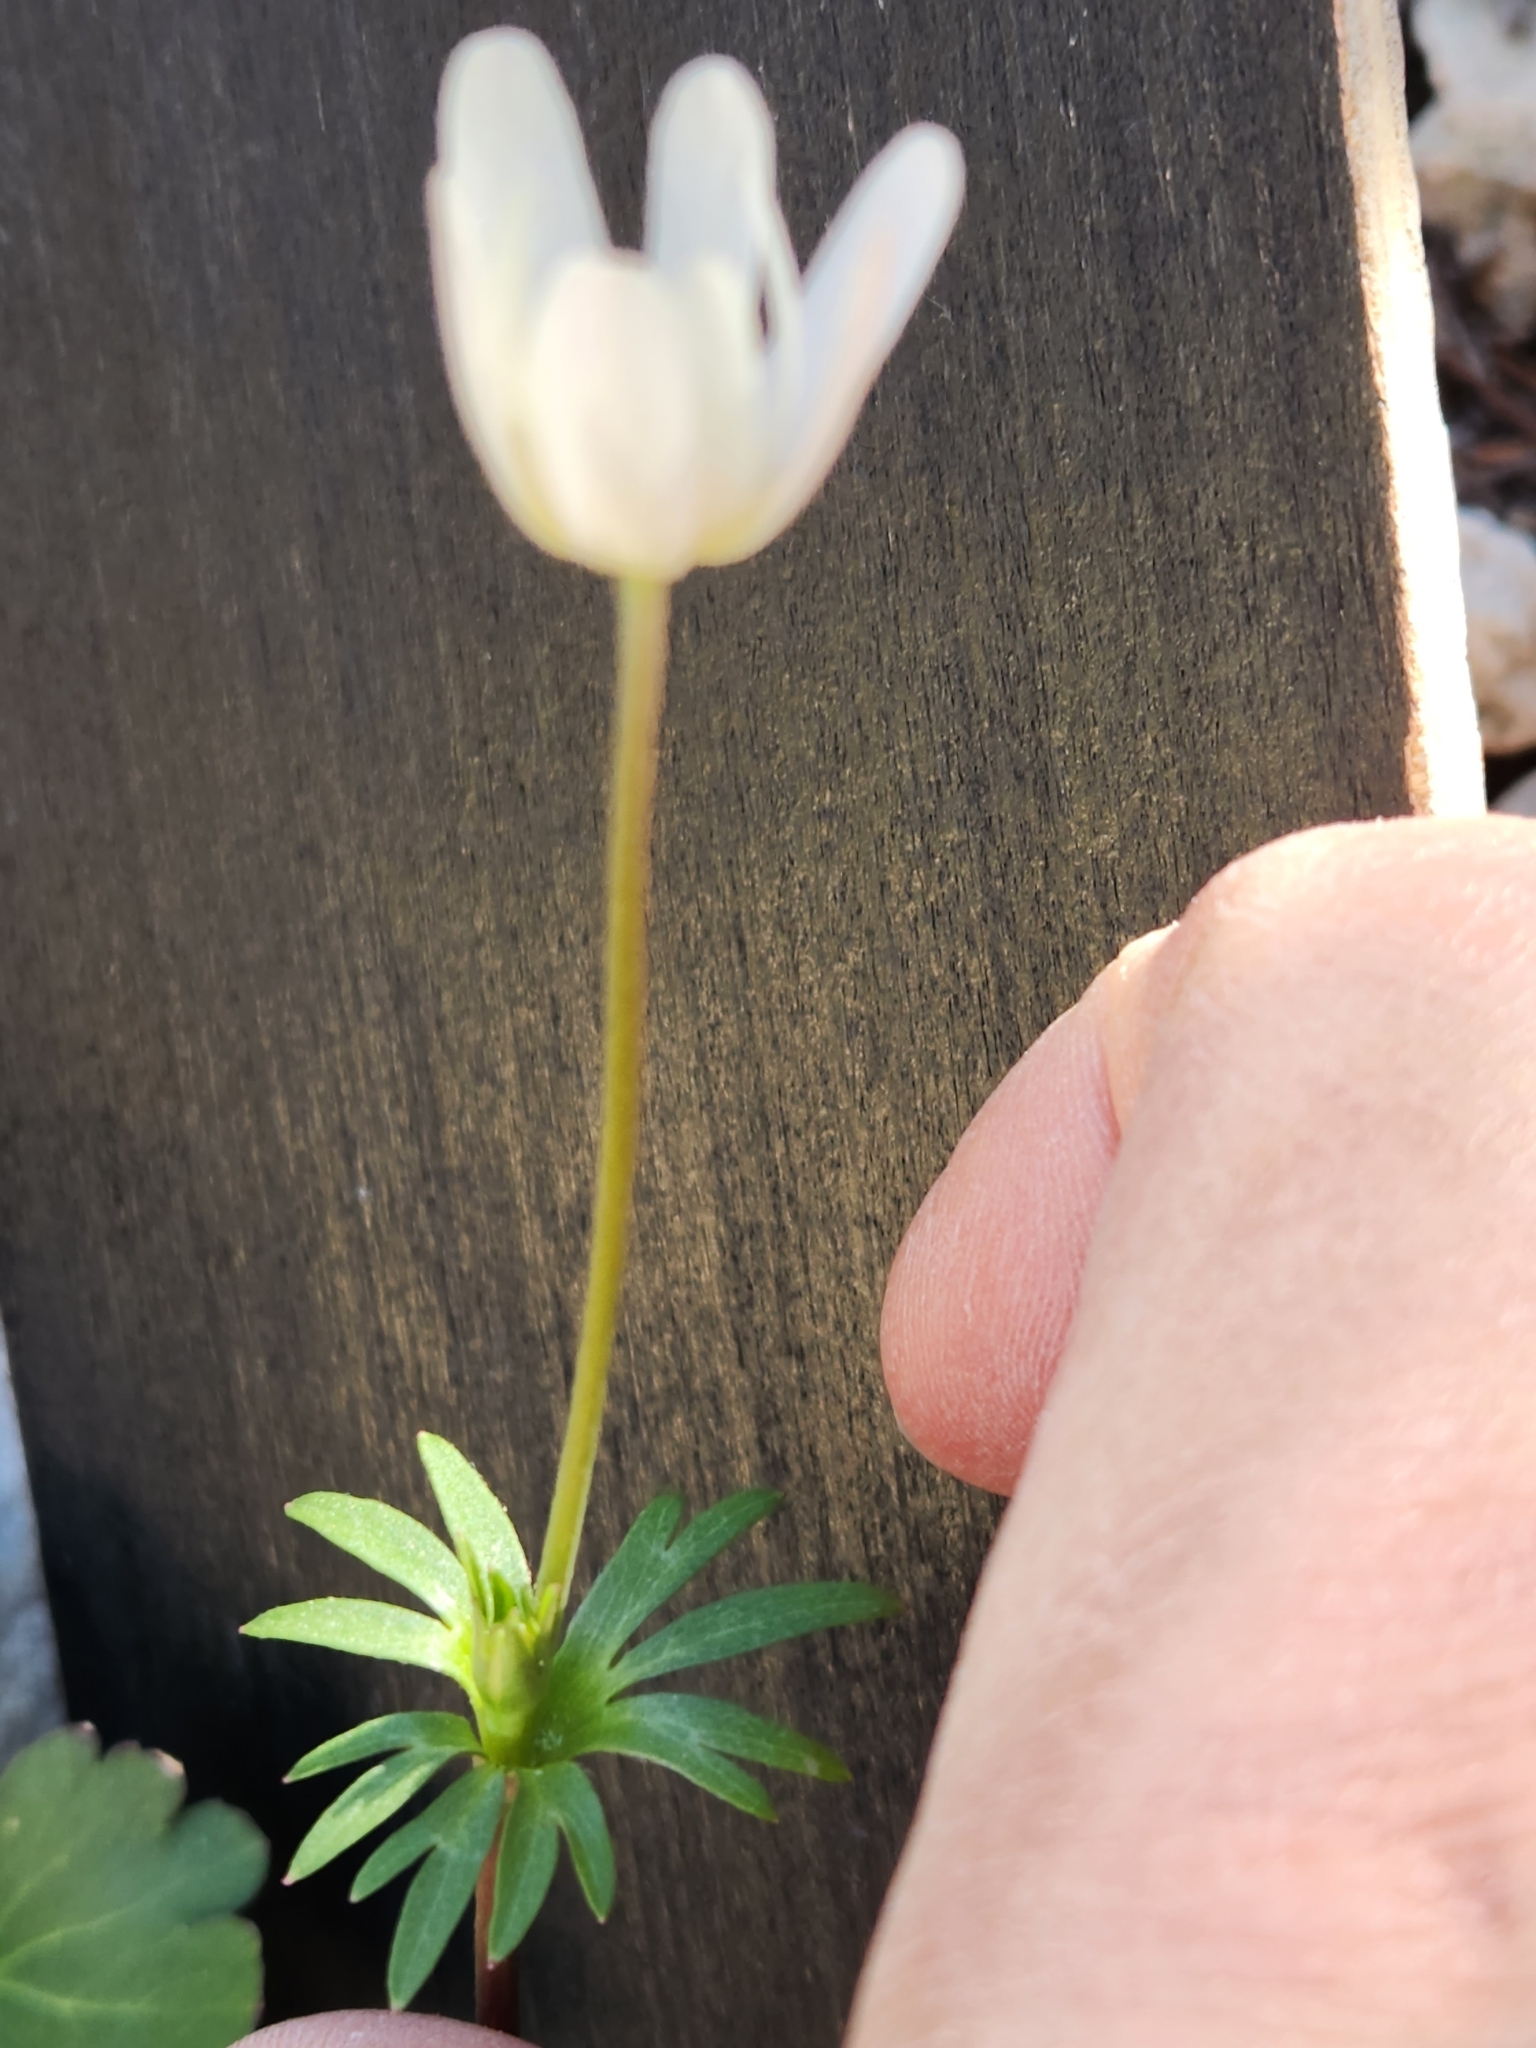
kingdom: Plantae
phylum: Tracheophyta
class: Magnoliopsida
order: Ranunculales
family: Ranunculaceae
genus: Anemone
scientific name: Anemone edwardsiana
